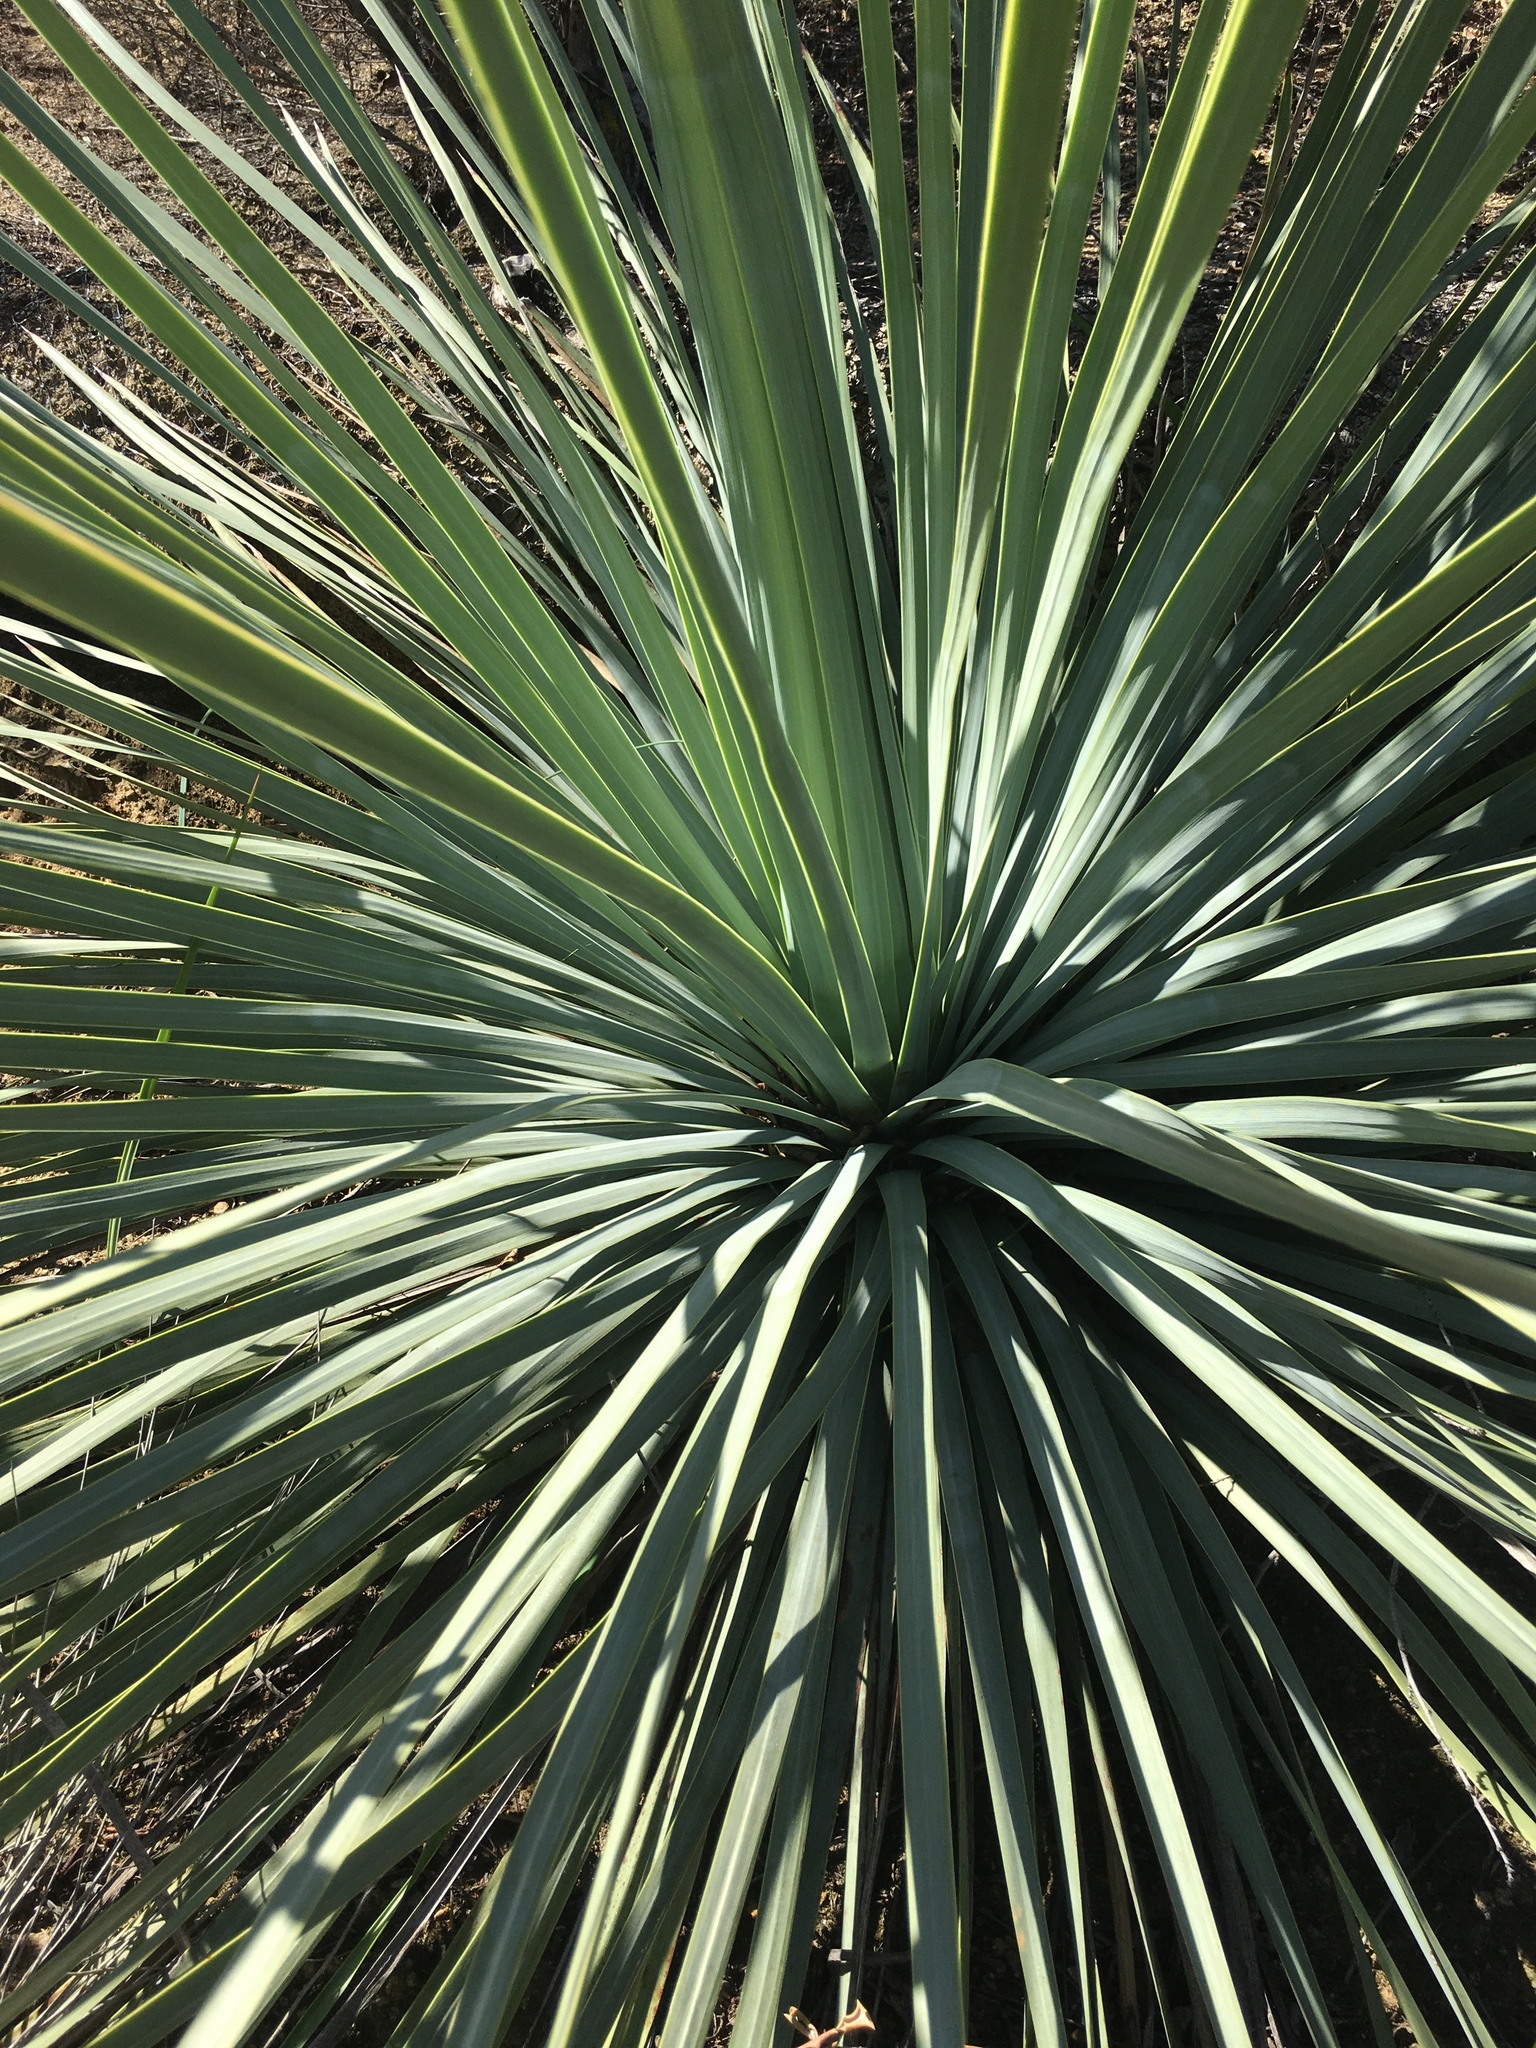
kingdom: Plantae
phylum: Tracheophyta
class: Liliopsida
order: Asparagales
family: Asparagaceae
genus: Hesperoyucca
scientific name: Hesperoyucca whipplei
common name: Our lord's-candle
